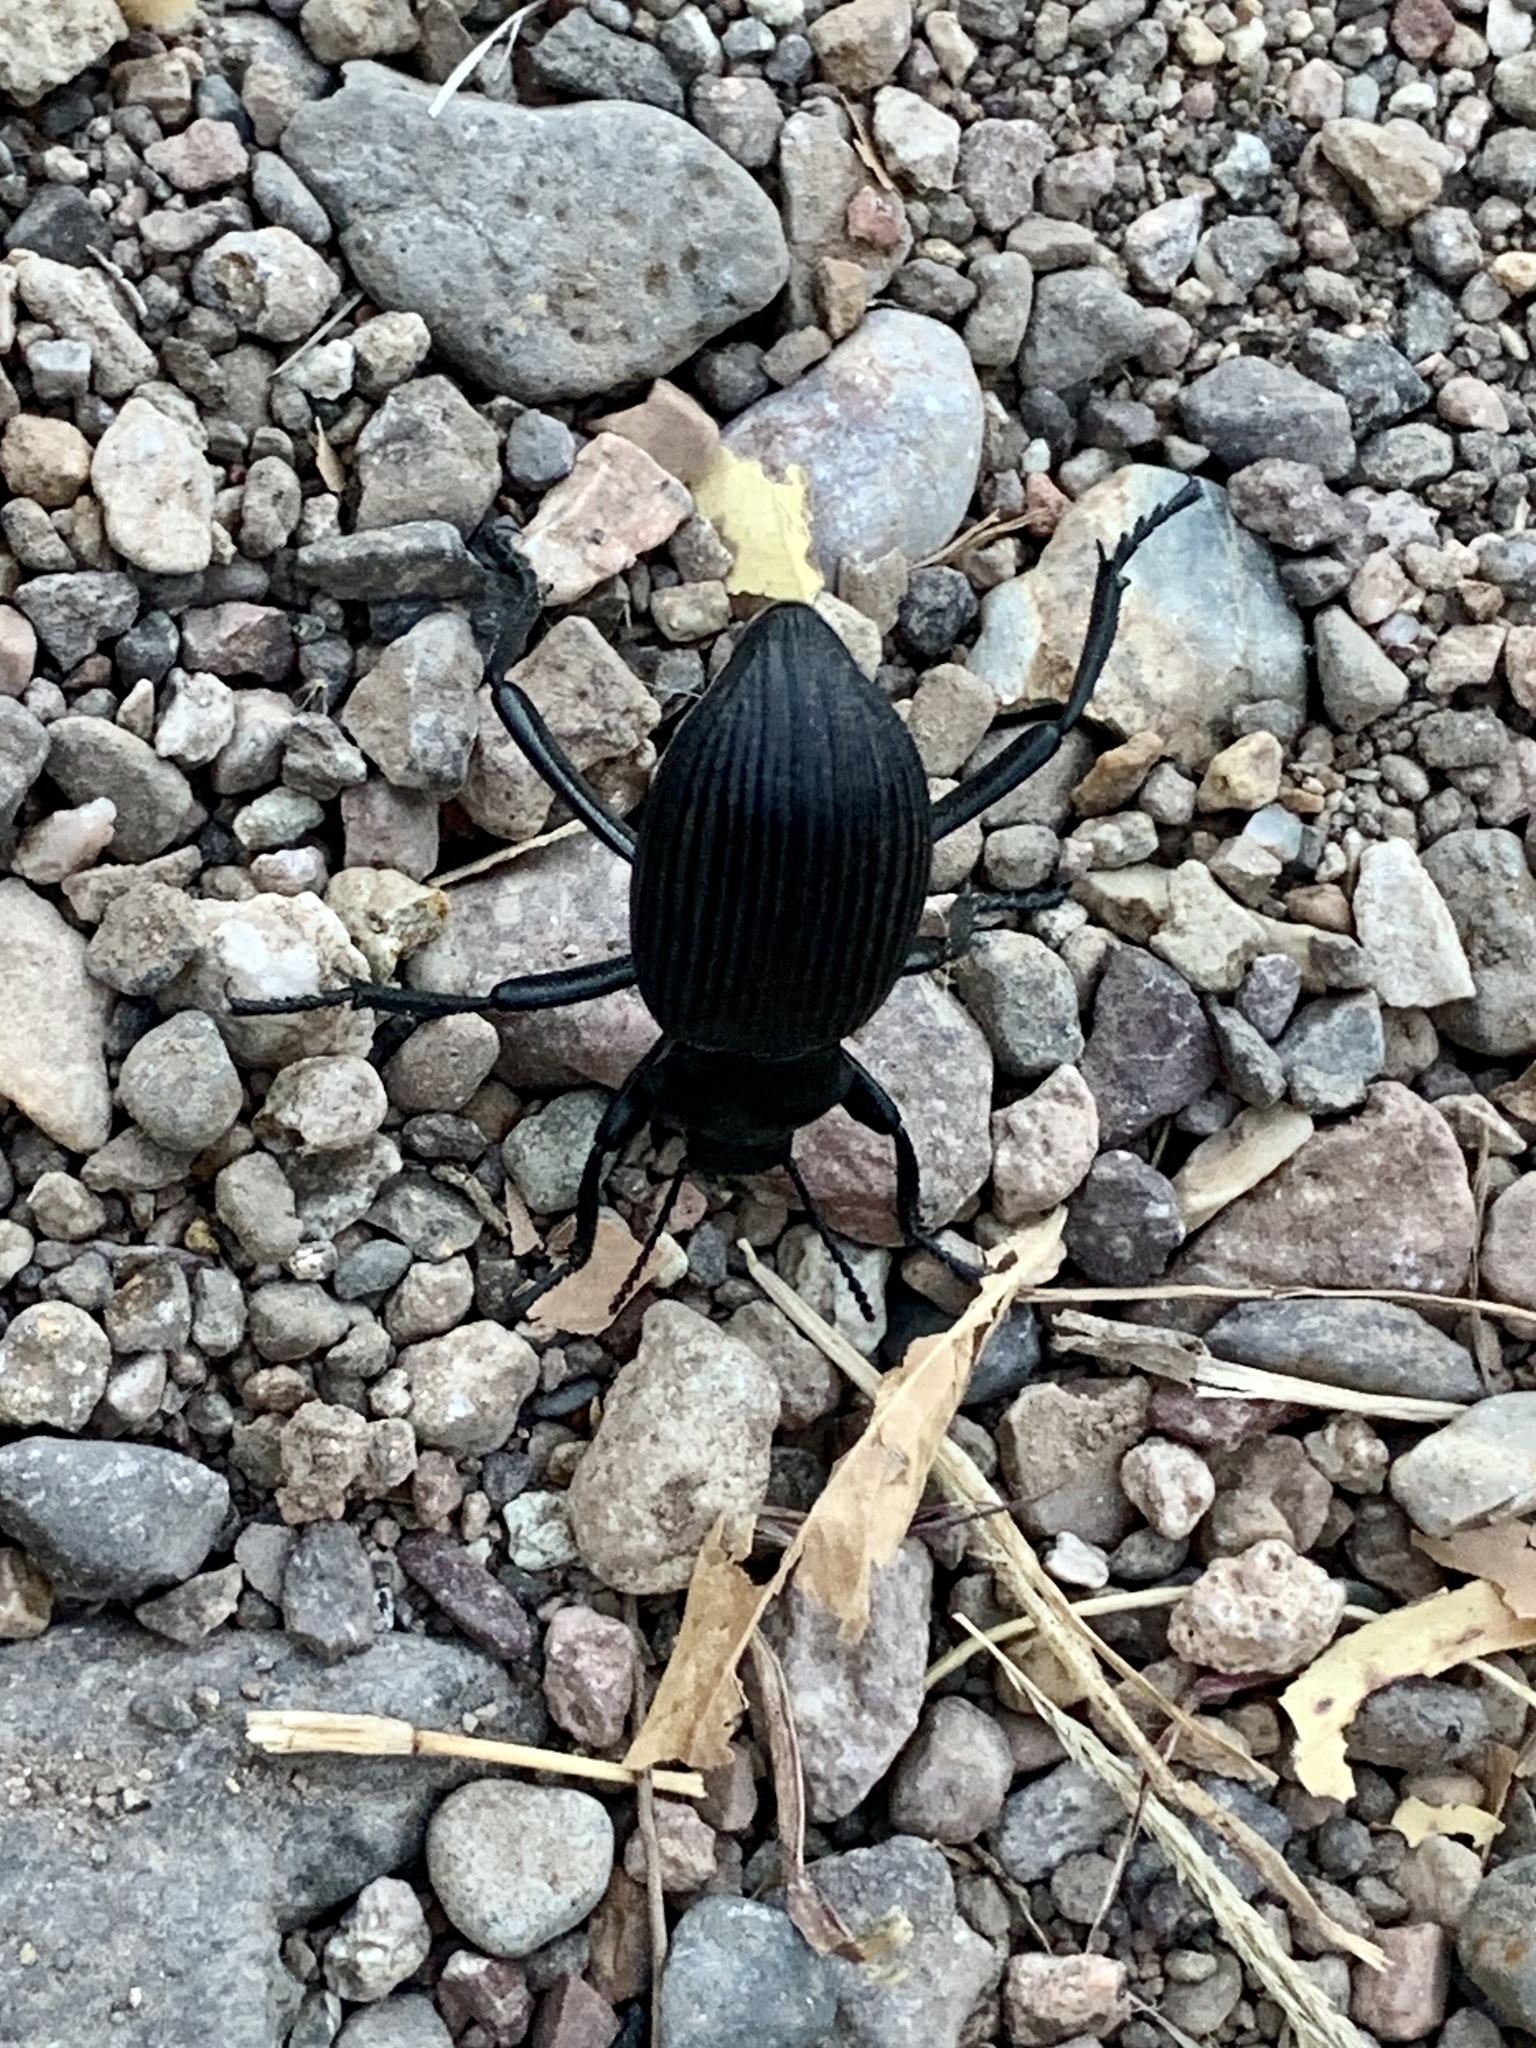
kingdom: Animalia
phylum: Arthropoda
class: Insecta
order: Coleoptera
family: Tenebrionidae
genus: Eleodes
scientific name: Eleodes obscura
